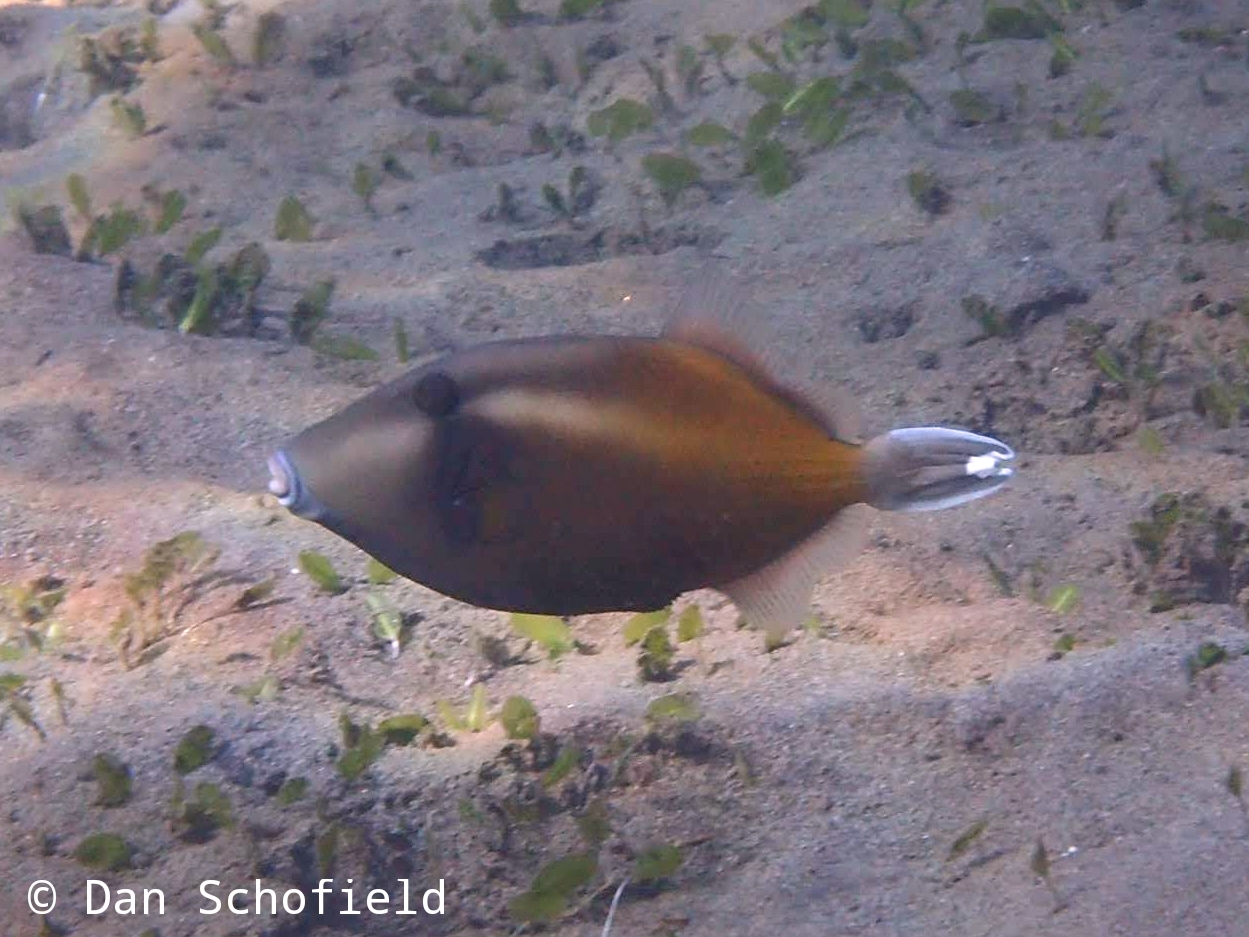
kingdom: Animalia
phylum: Chordata
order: Tetraodontiformes
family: Balistidae
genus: Sufflamen
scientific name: Sufflamen chrysopterum
